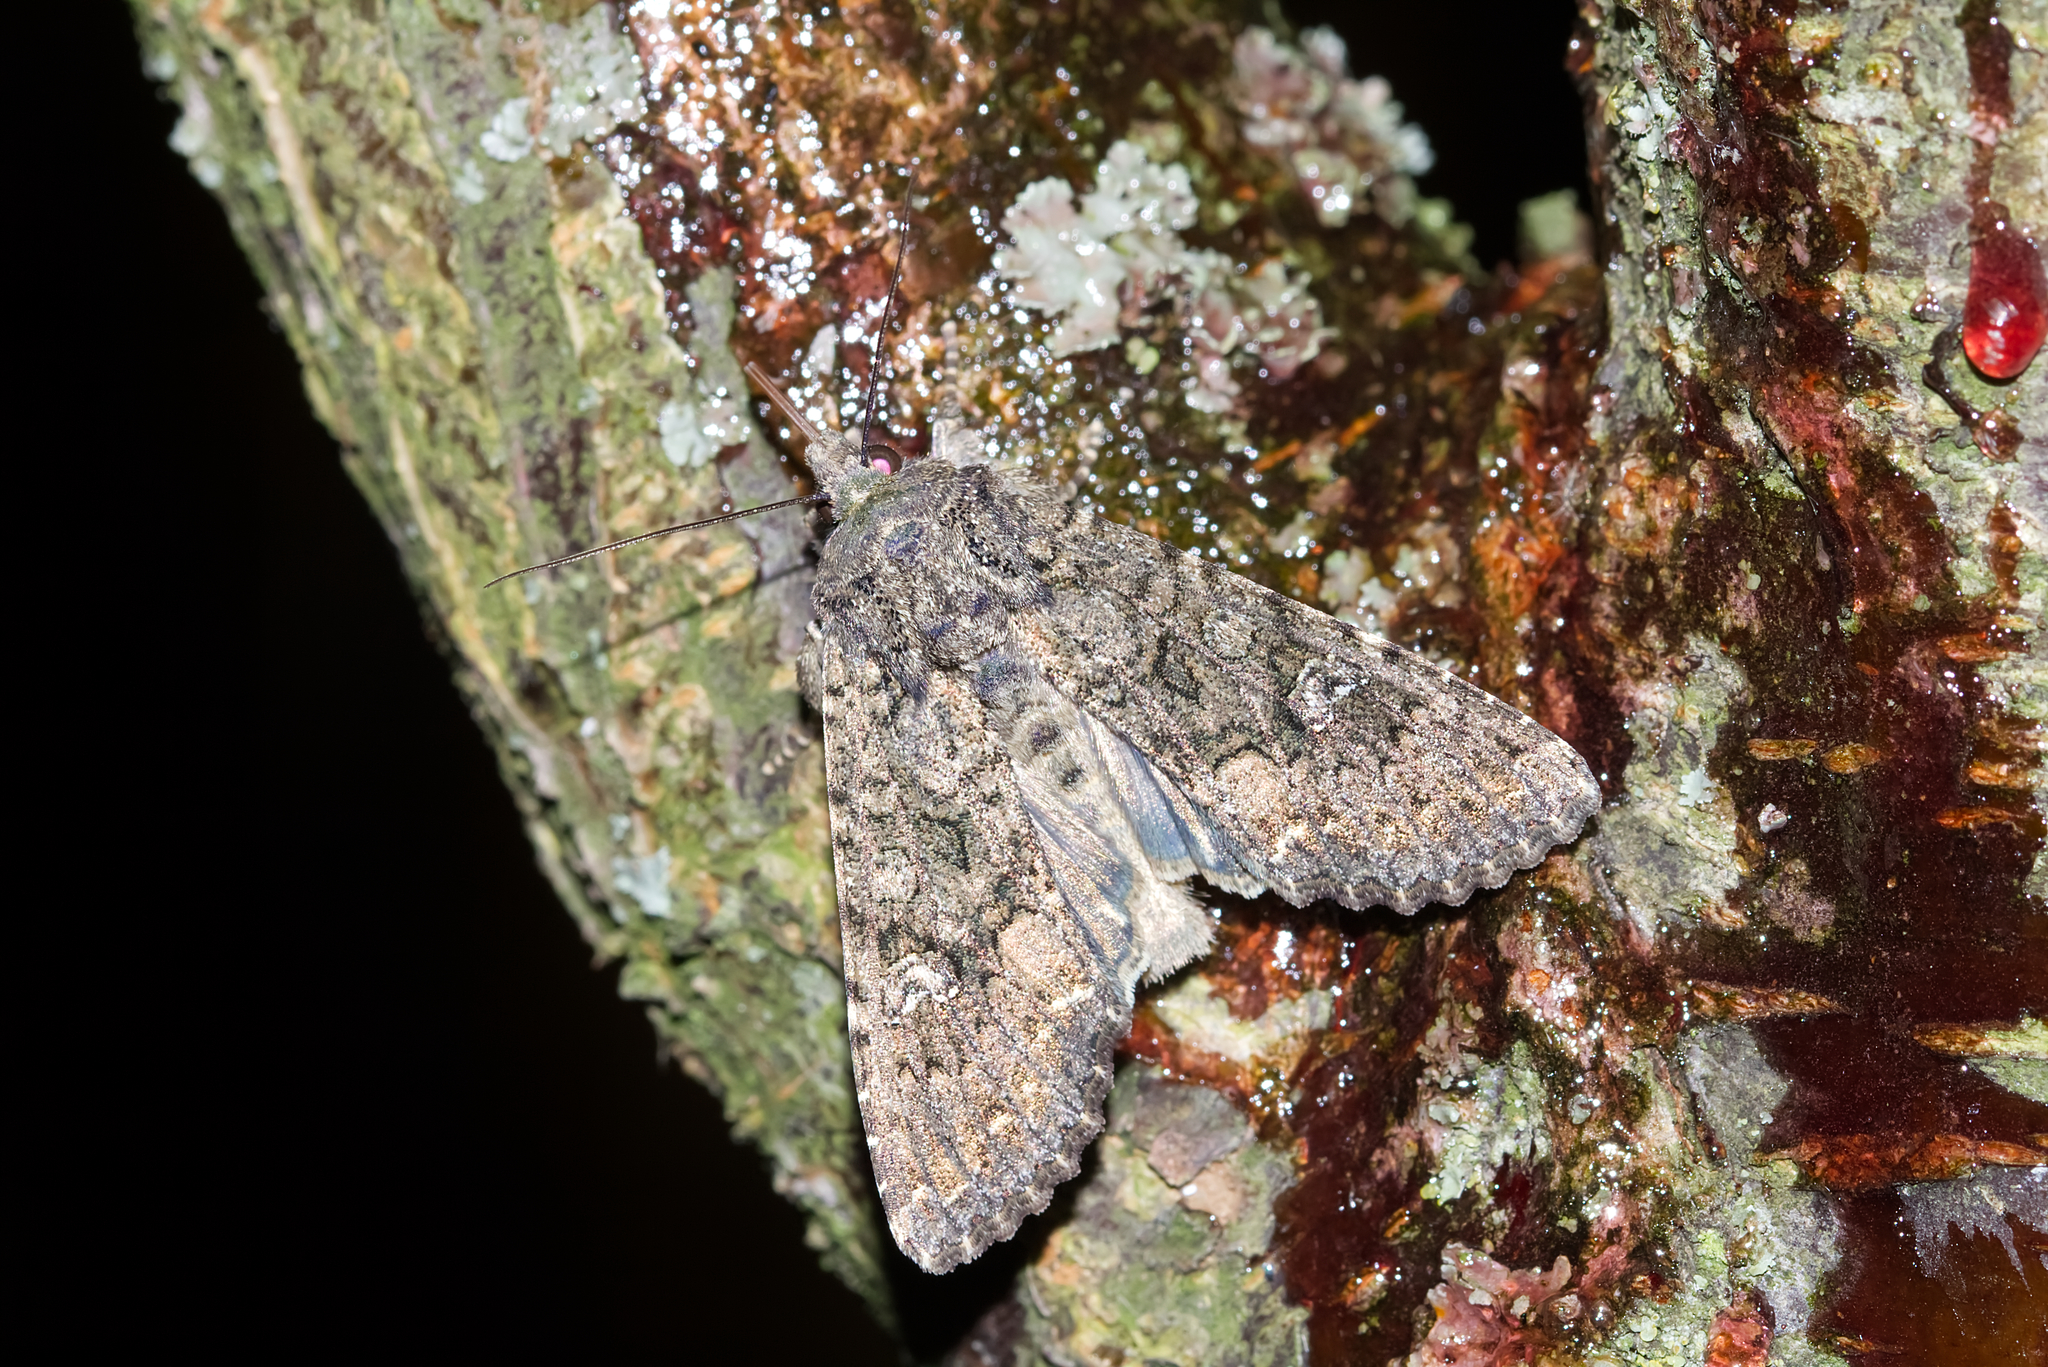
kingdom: Animalia
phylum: Arthropoda
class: Insecta
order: Lepidoptera
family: Noctuidae
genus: Mamestra
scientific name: Mamestra brassicae
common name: Cabbage moth
